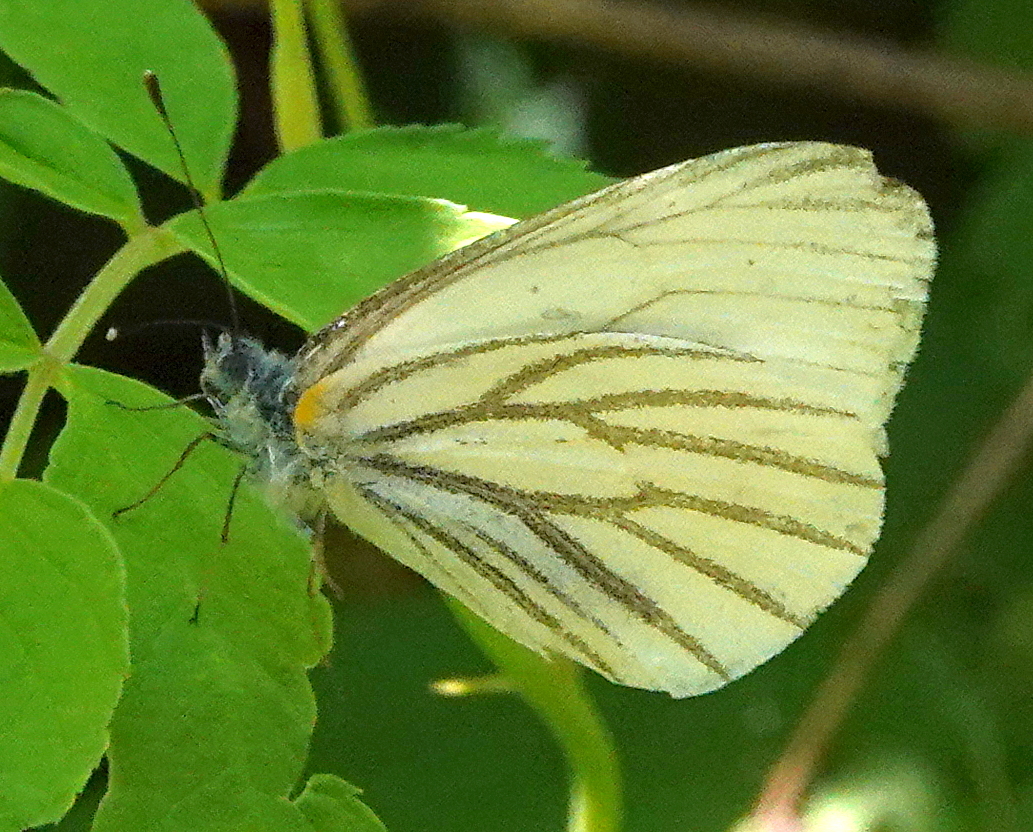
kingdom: Animalia
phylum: Arthropoda
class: Insecta
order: Lepidoptera
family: Pieridae
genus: Pieris
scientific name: Pieris oleracea
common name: Mustard white
